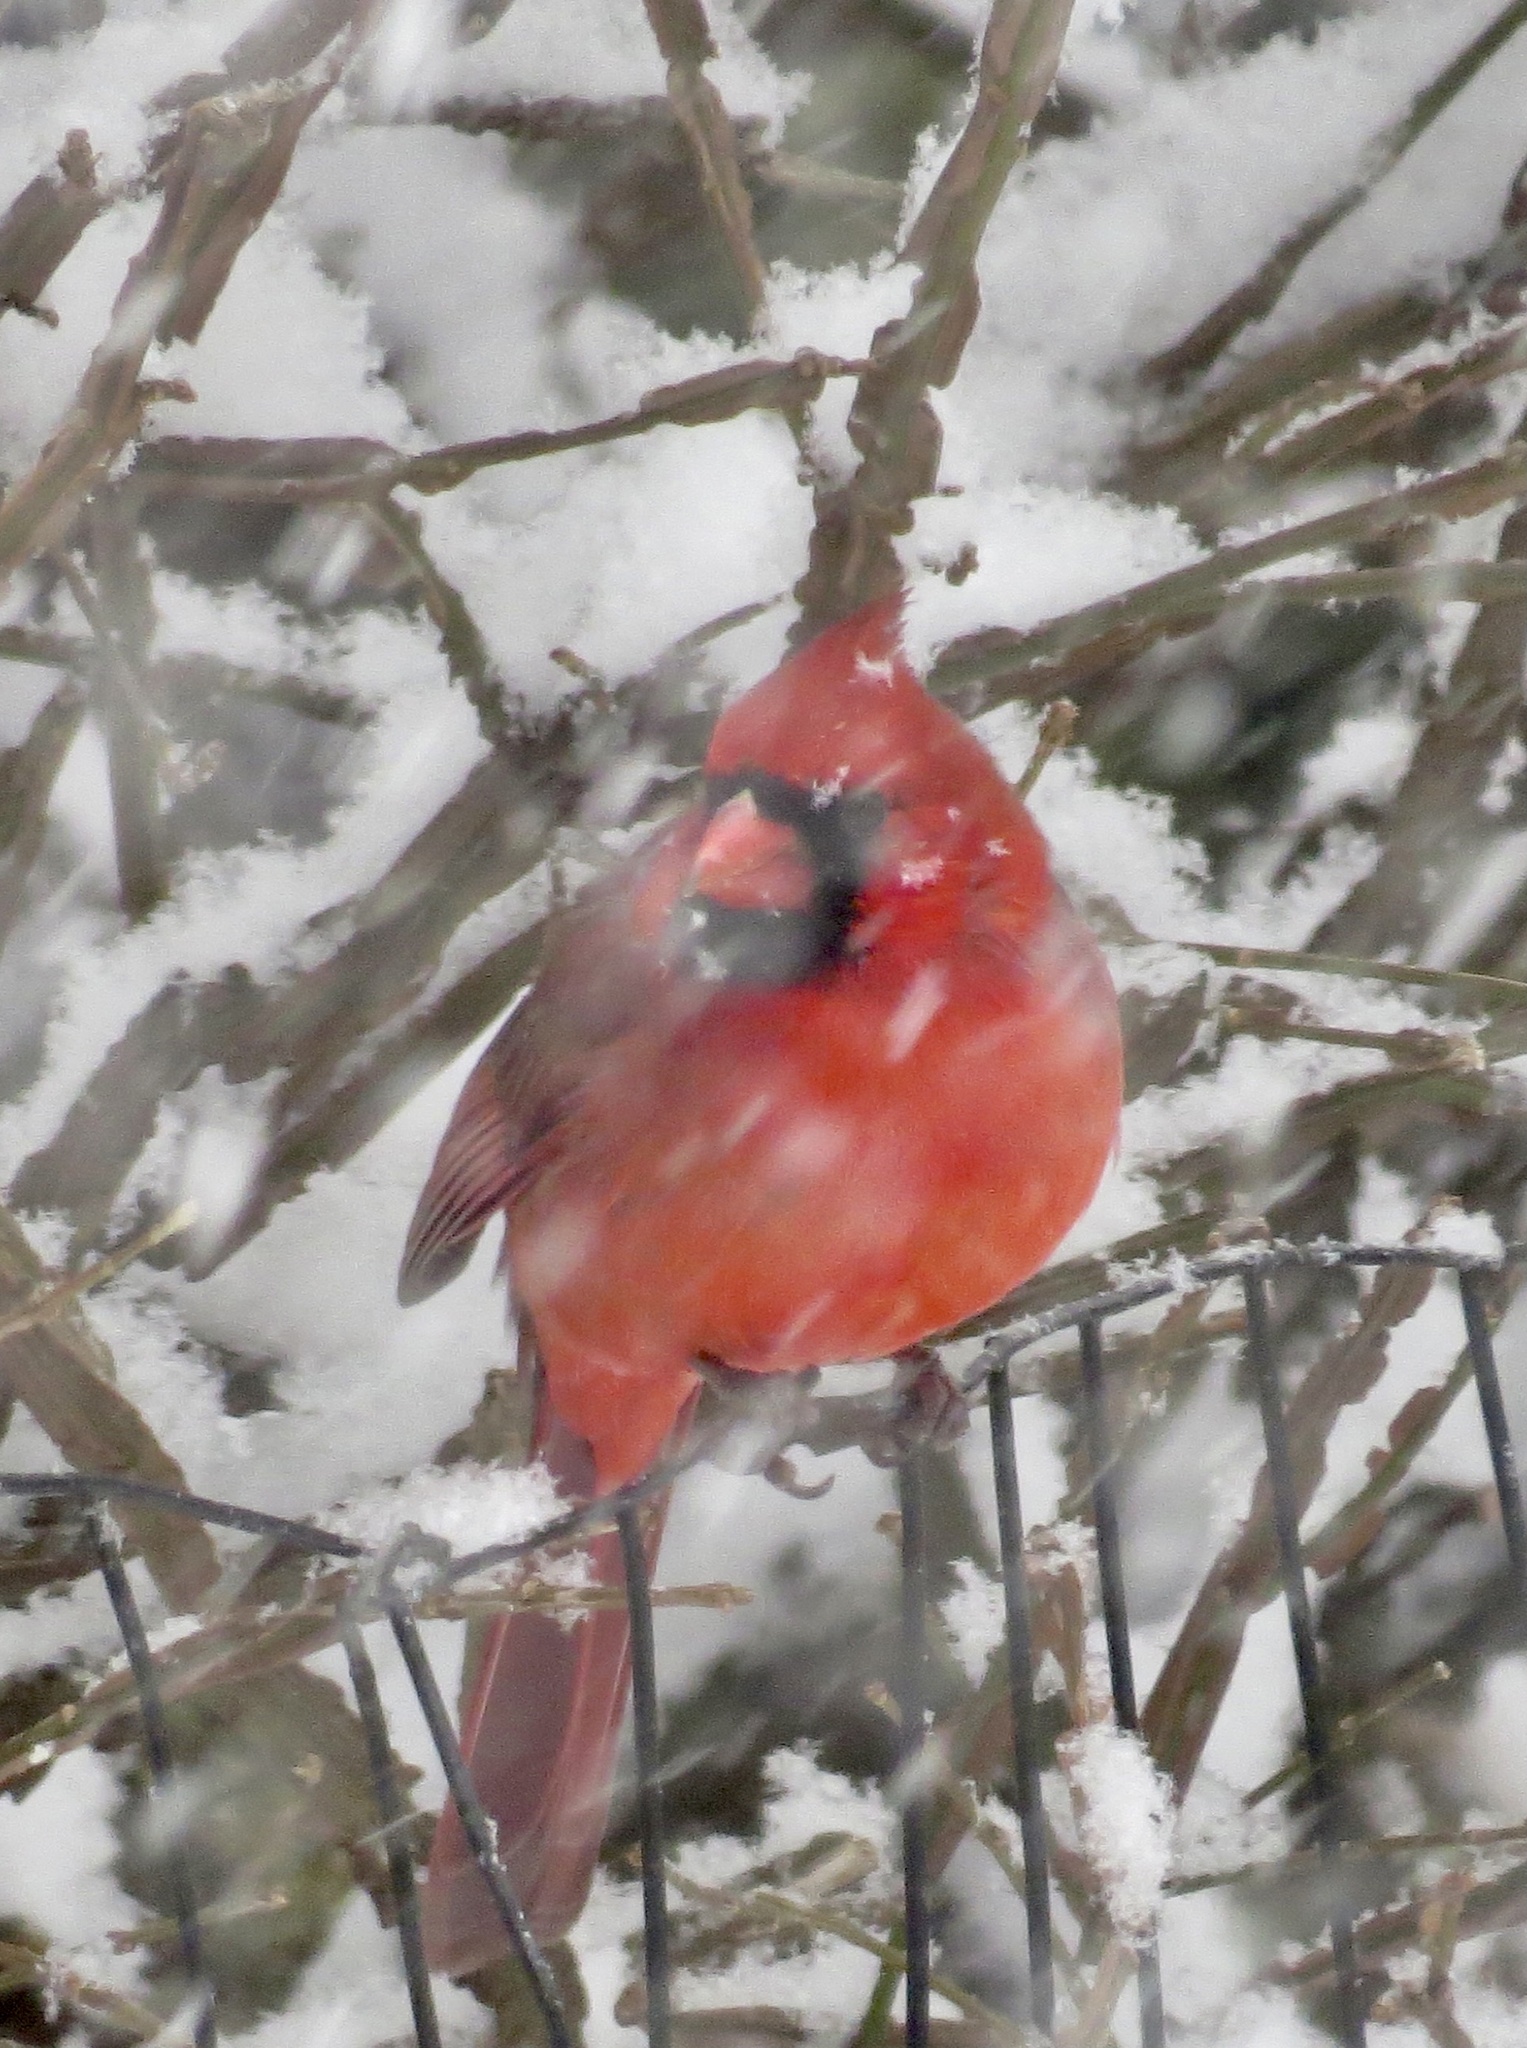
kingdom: Animalia
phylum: Chordata
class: Aves
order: Passeriformes
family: Cardinalidae
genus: Cardinalis
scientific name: Cardinalis cardinalis
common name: Northern cardinal
